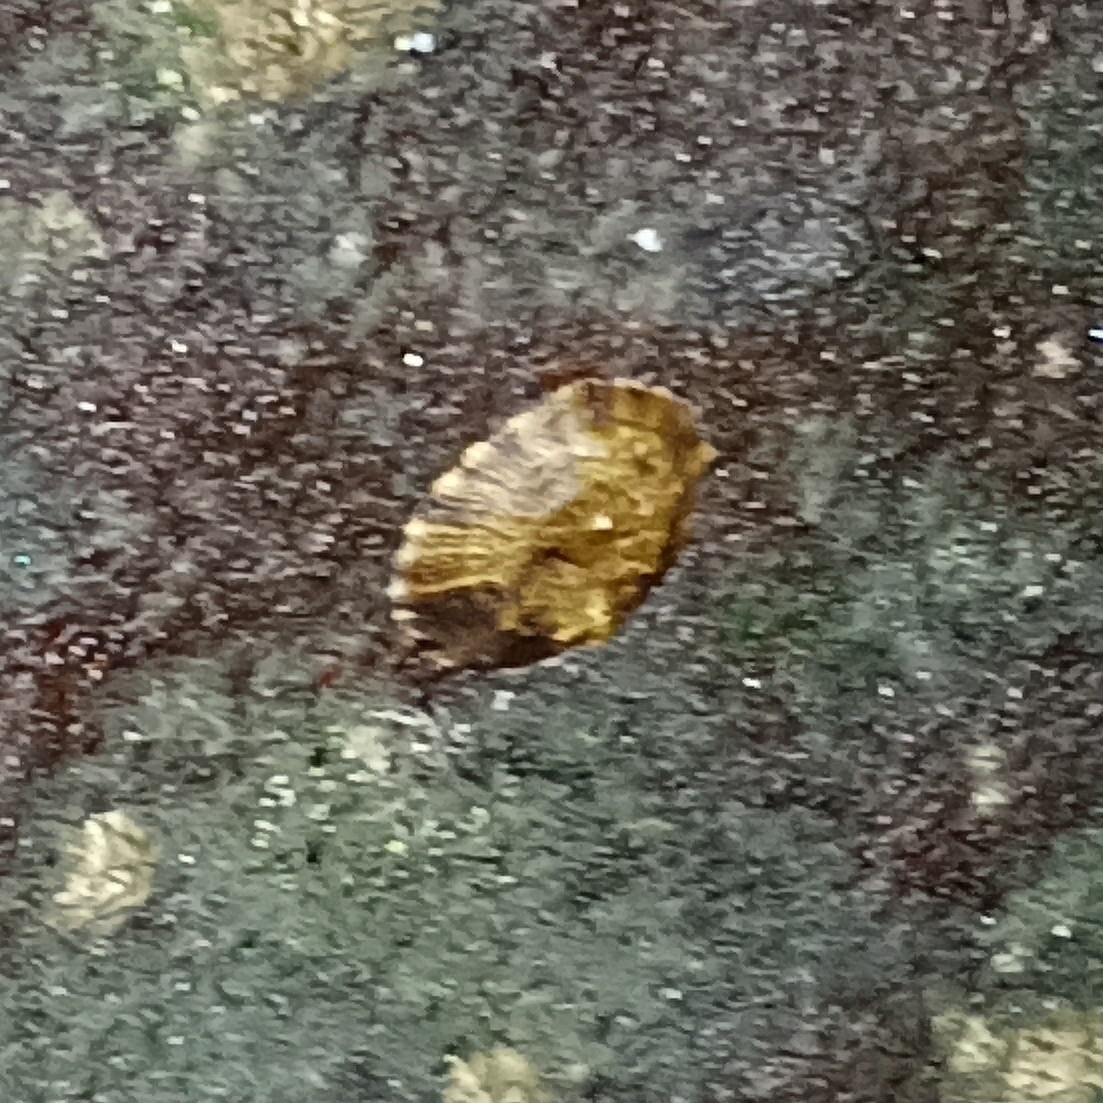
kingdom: Animalia
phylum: Mollusca
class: Gastropoda
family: Lottiidae
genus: Lottia
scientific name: Lottia subrugosa
